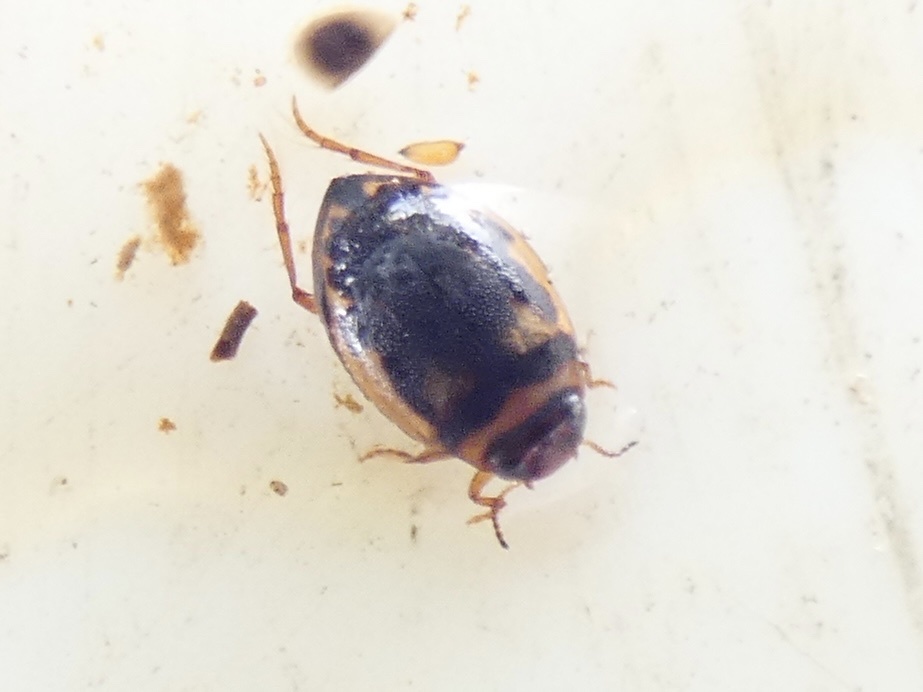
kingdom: Animalia
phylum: Arthropoda
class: Insecta
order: Coleoptera
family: Dytiscidae
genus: Hygrotus
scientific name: Hygrotus inaequalis
